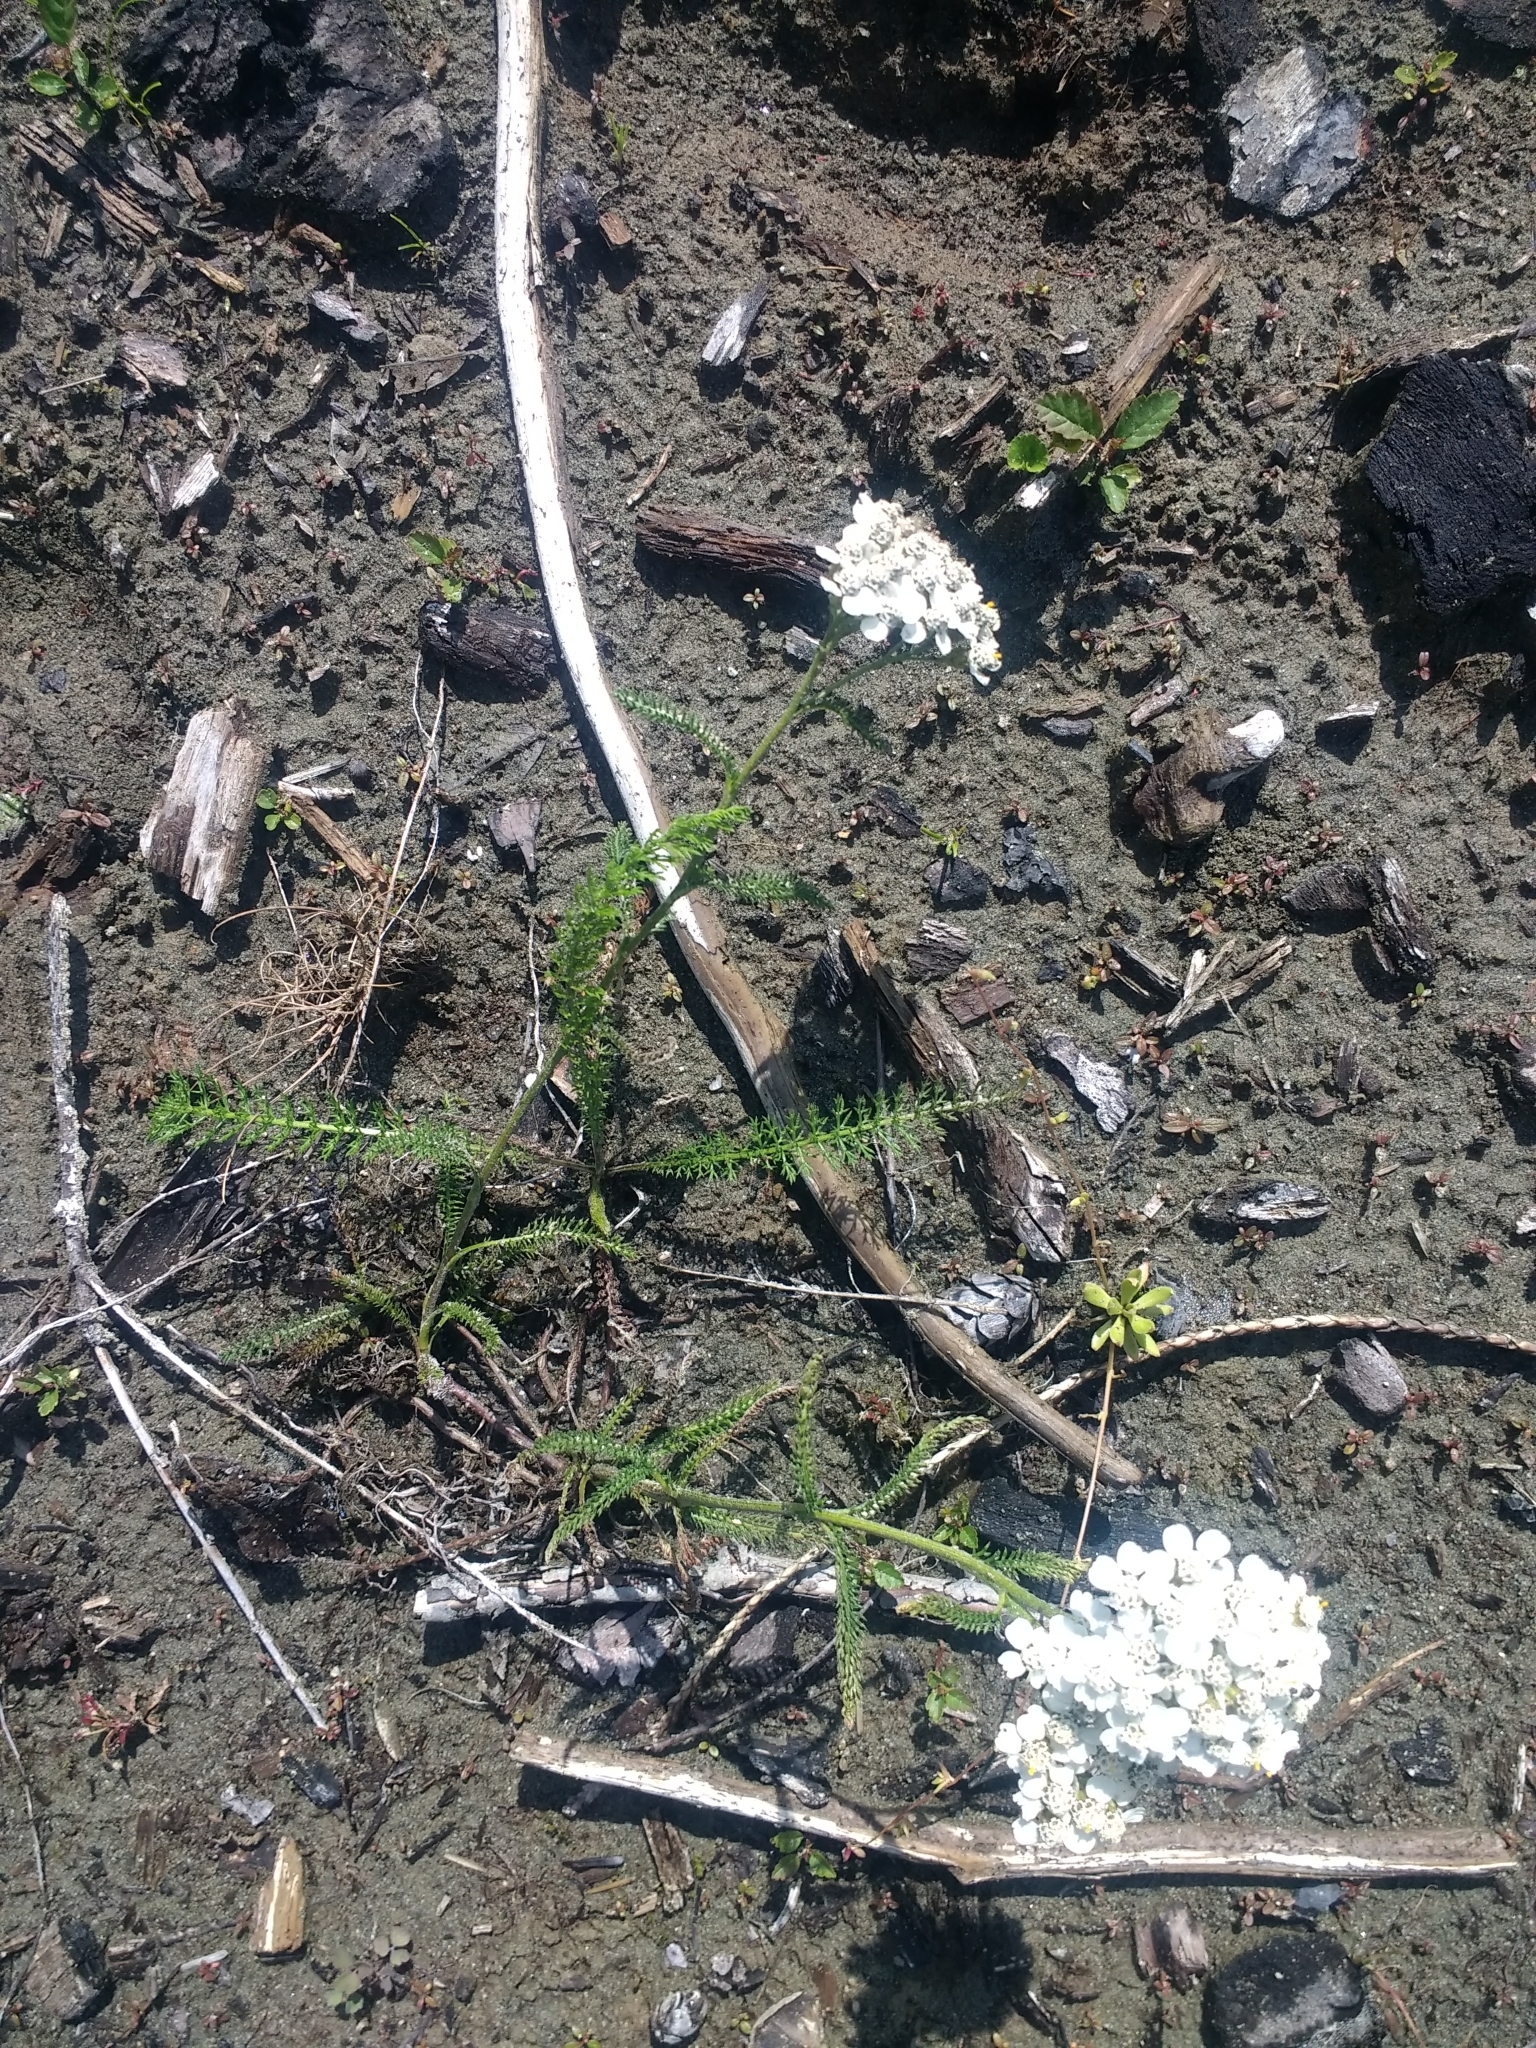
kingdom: Plantae
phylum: Tracheophyta
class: Magnoliopsida
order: Asterales
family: Asteraceae
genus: Achillea
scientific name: Achillea millefolium
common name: Yarrow
